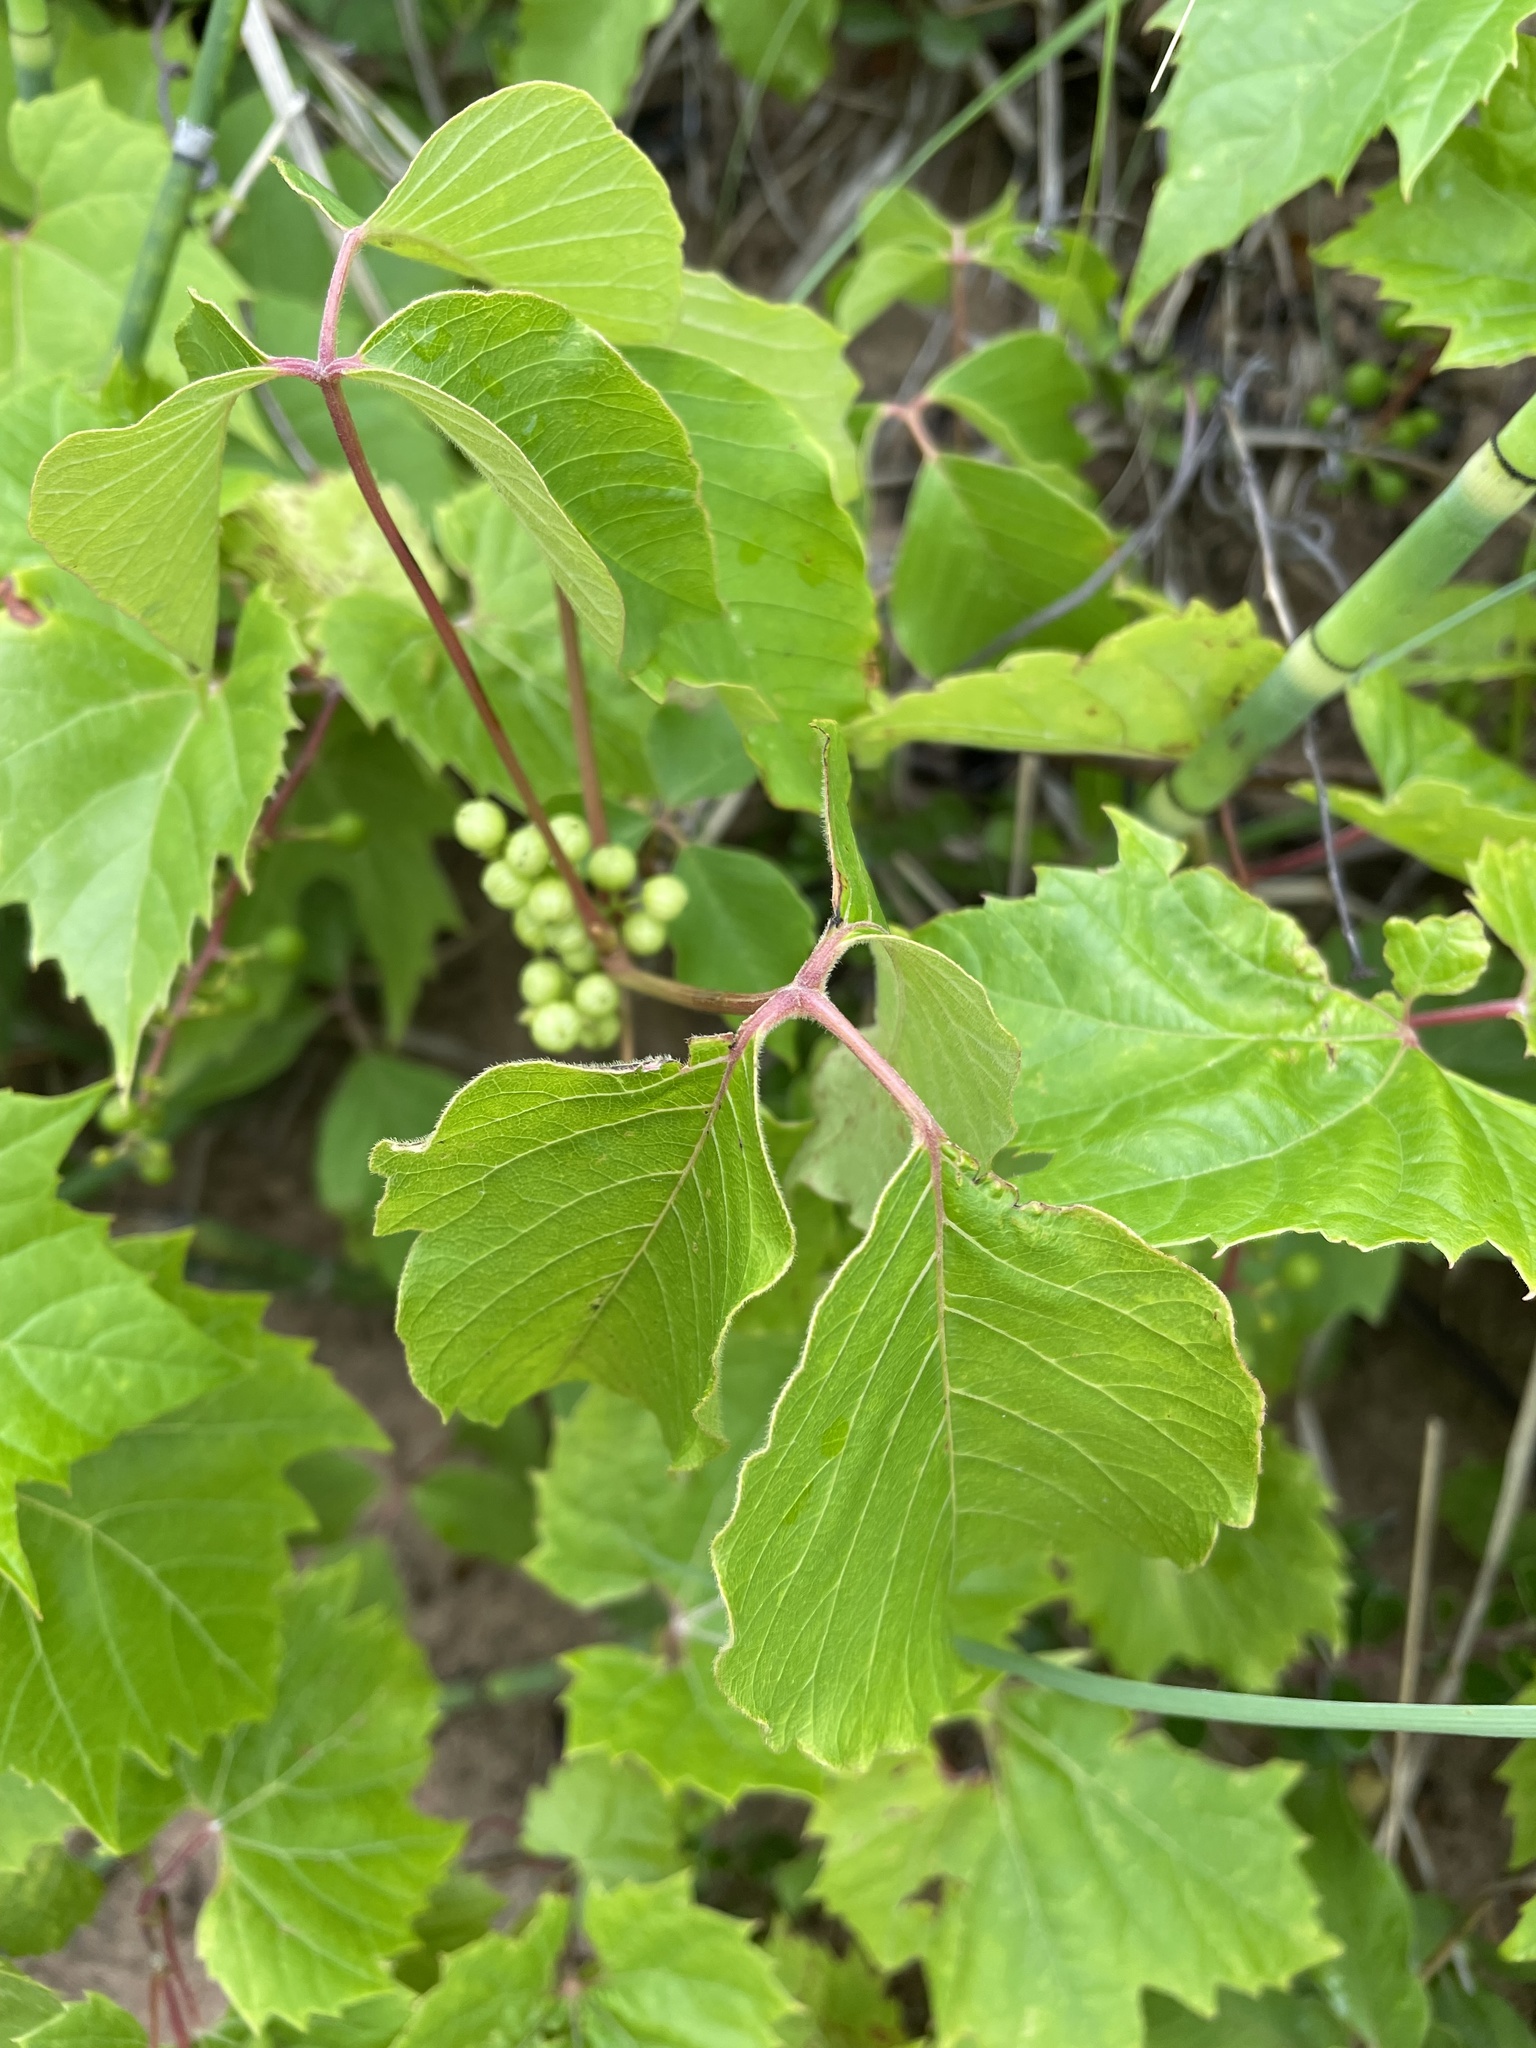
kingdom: Plantae
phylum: Tracheophyta
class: Magnoliopsida
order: Sapindales
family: Anacardiaceae
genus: Toxicodendron
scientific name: Toxicodendron radicans
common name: Poison ivy
